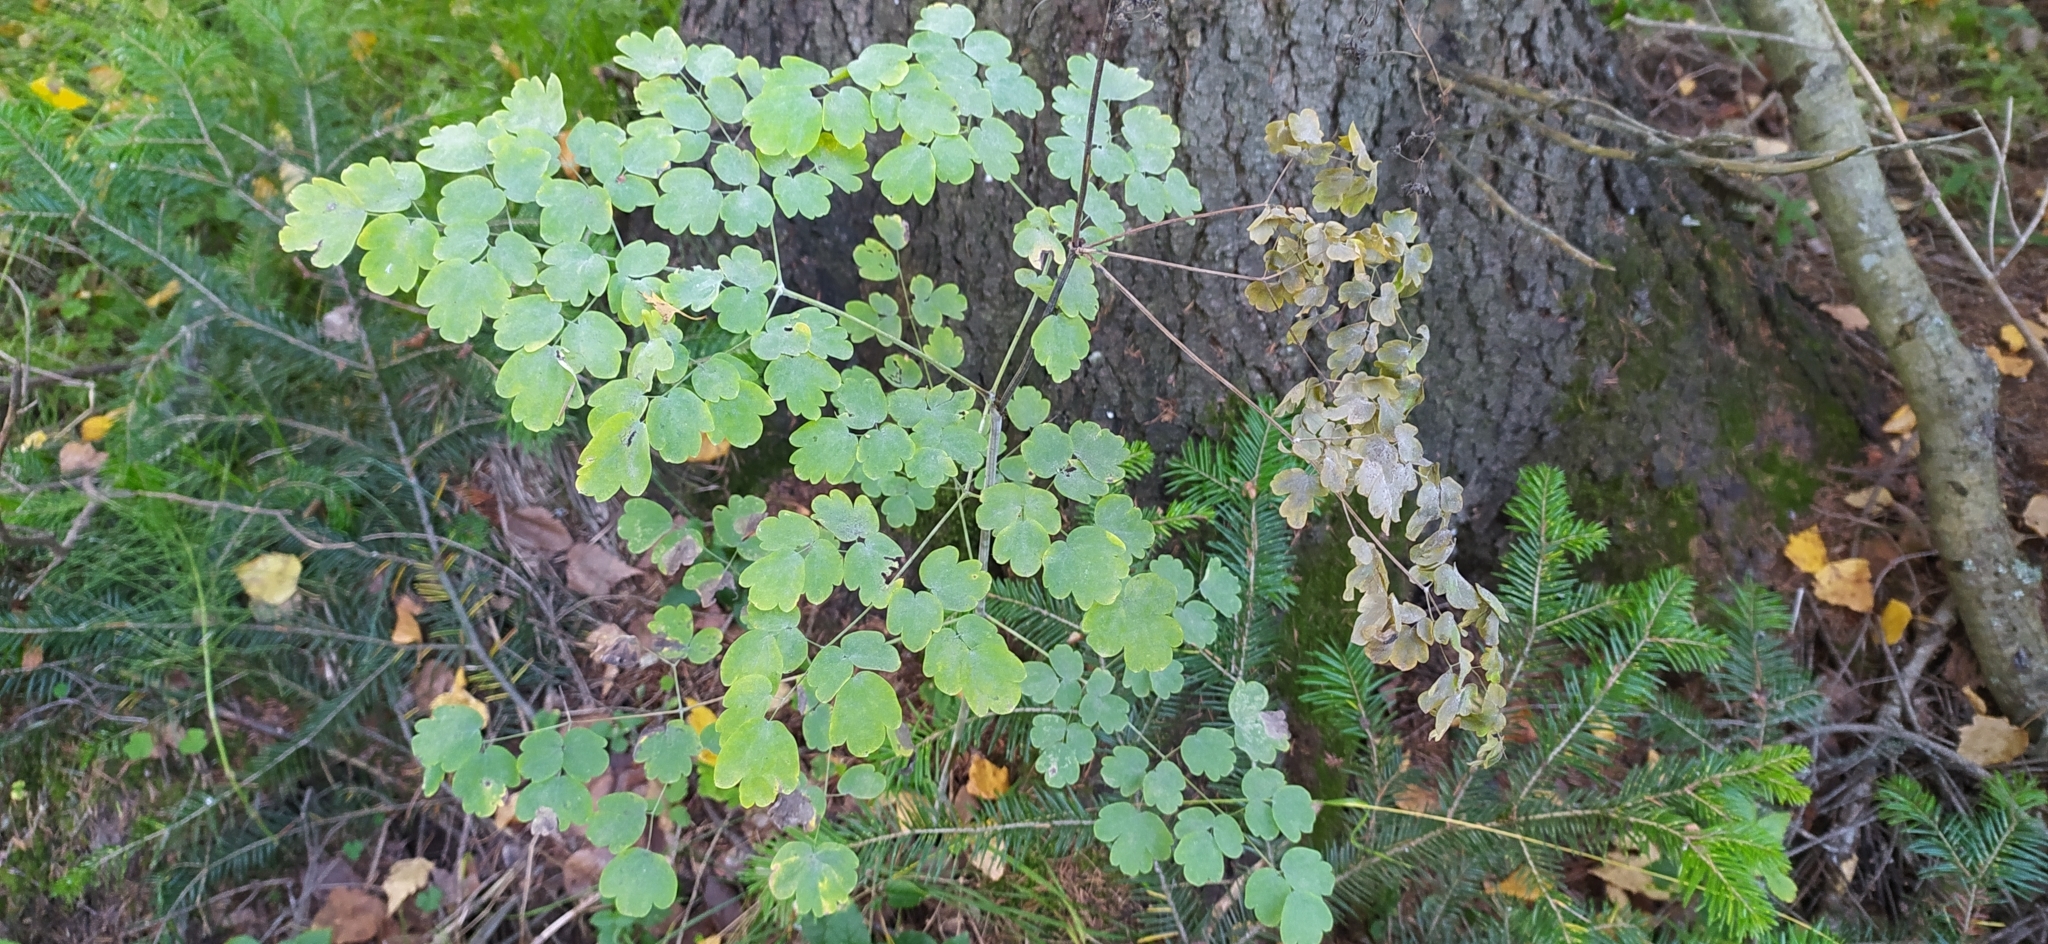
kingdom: Plantae
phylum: Tracheophyta
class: Magnoliopsida
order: Ranunculales
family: Ranunculaceae
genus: Thalictrum
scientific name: Thalictrum minus
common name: Lesser meadow-rue
